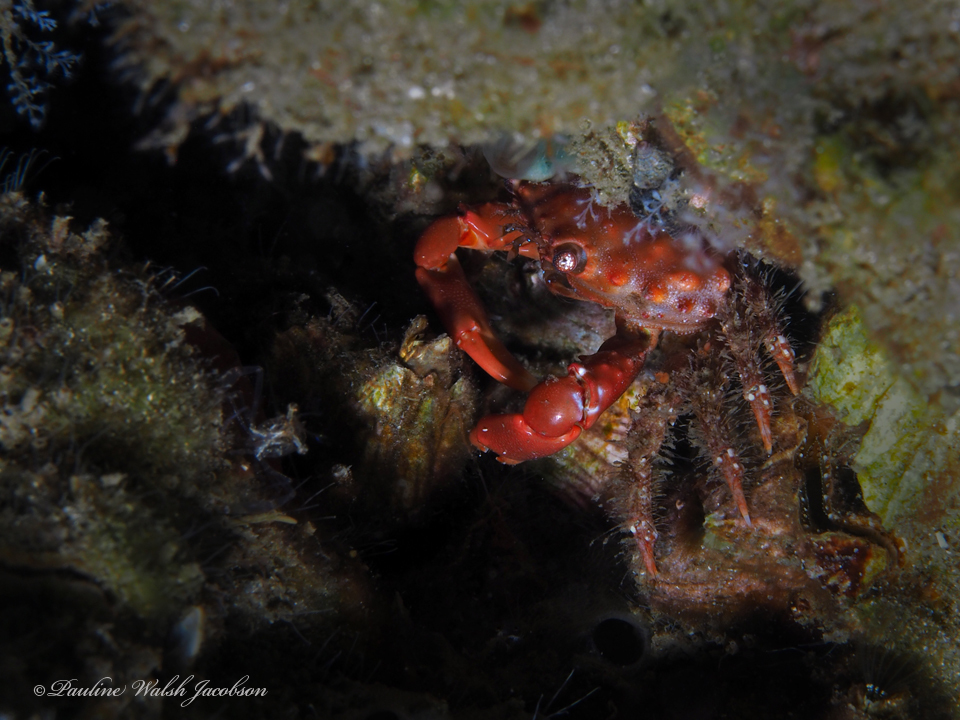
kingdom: Animalia
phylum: Arthropoda
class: Malacostraca
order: Decapoda
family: Mithracidae
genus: Mithraculus
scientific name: Mithraculus forceps
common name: Red-ridged clinging crab
